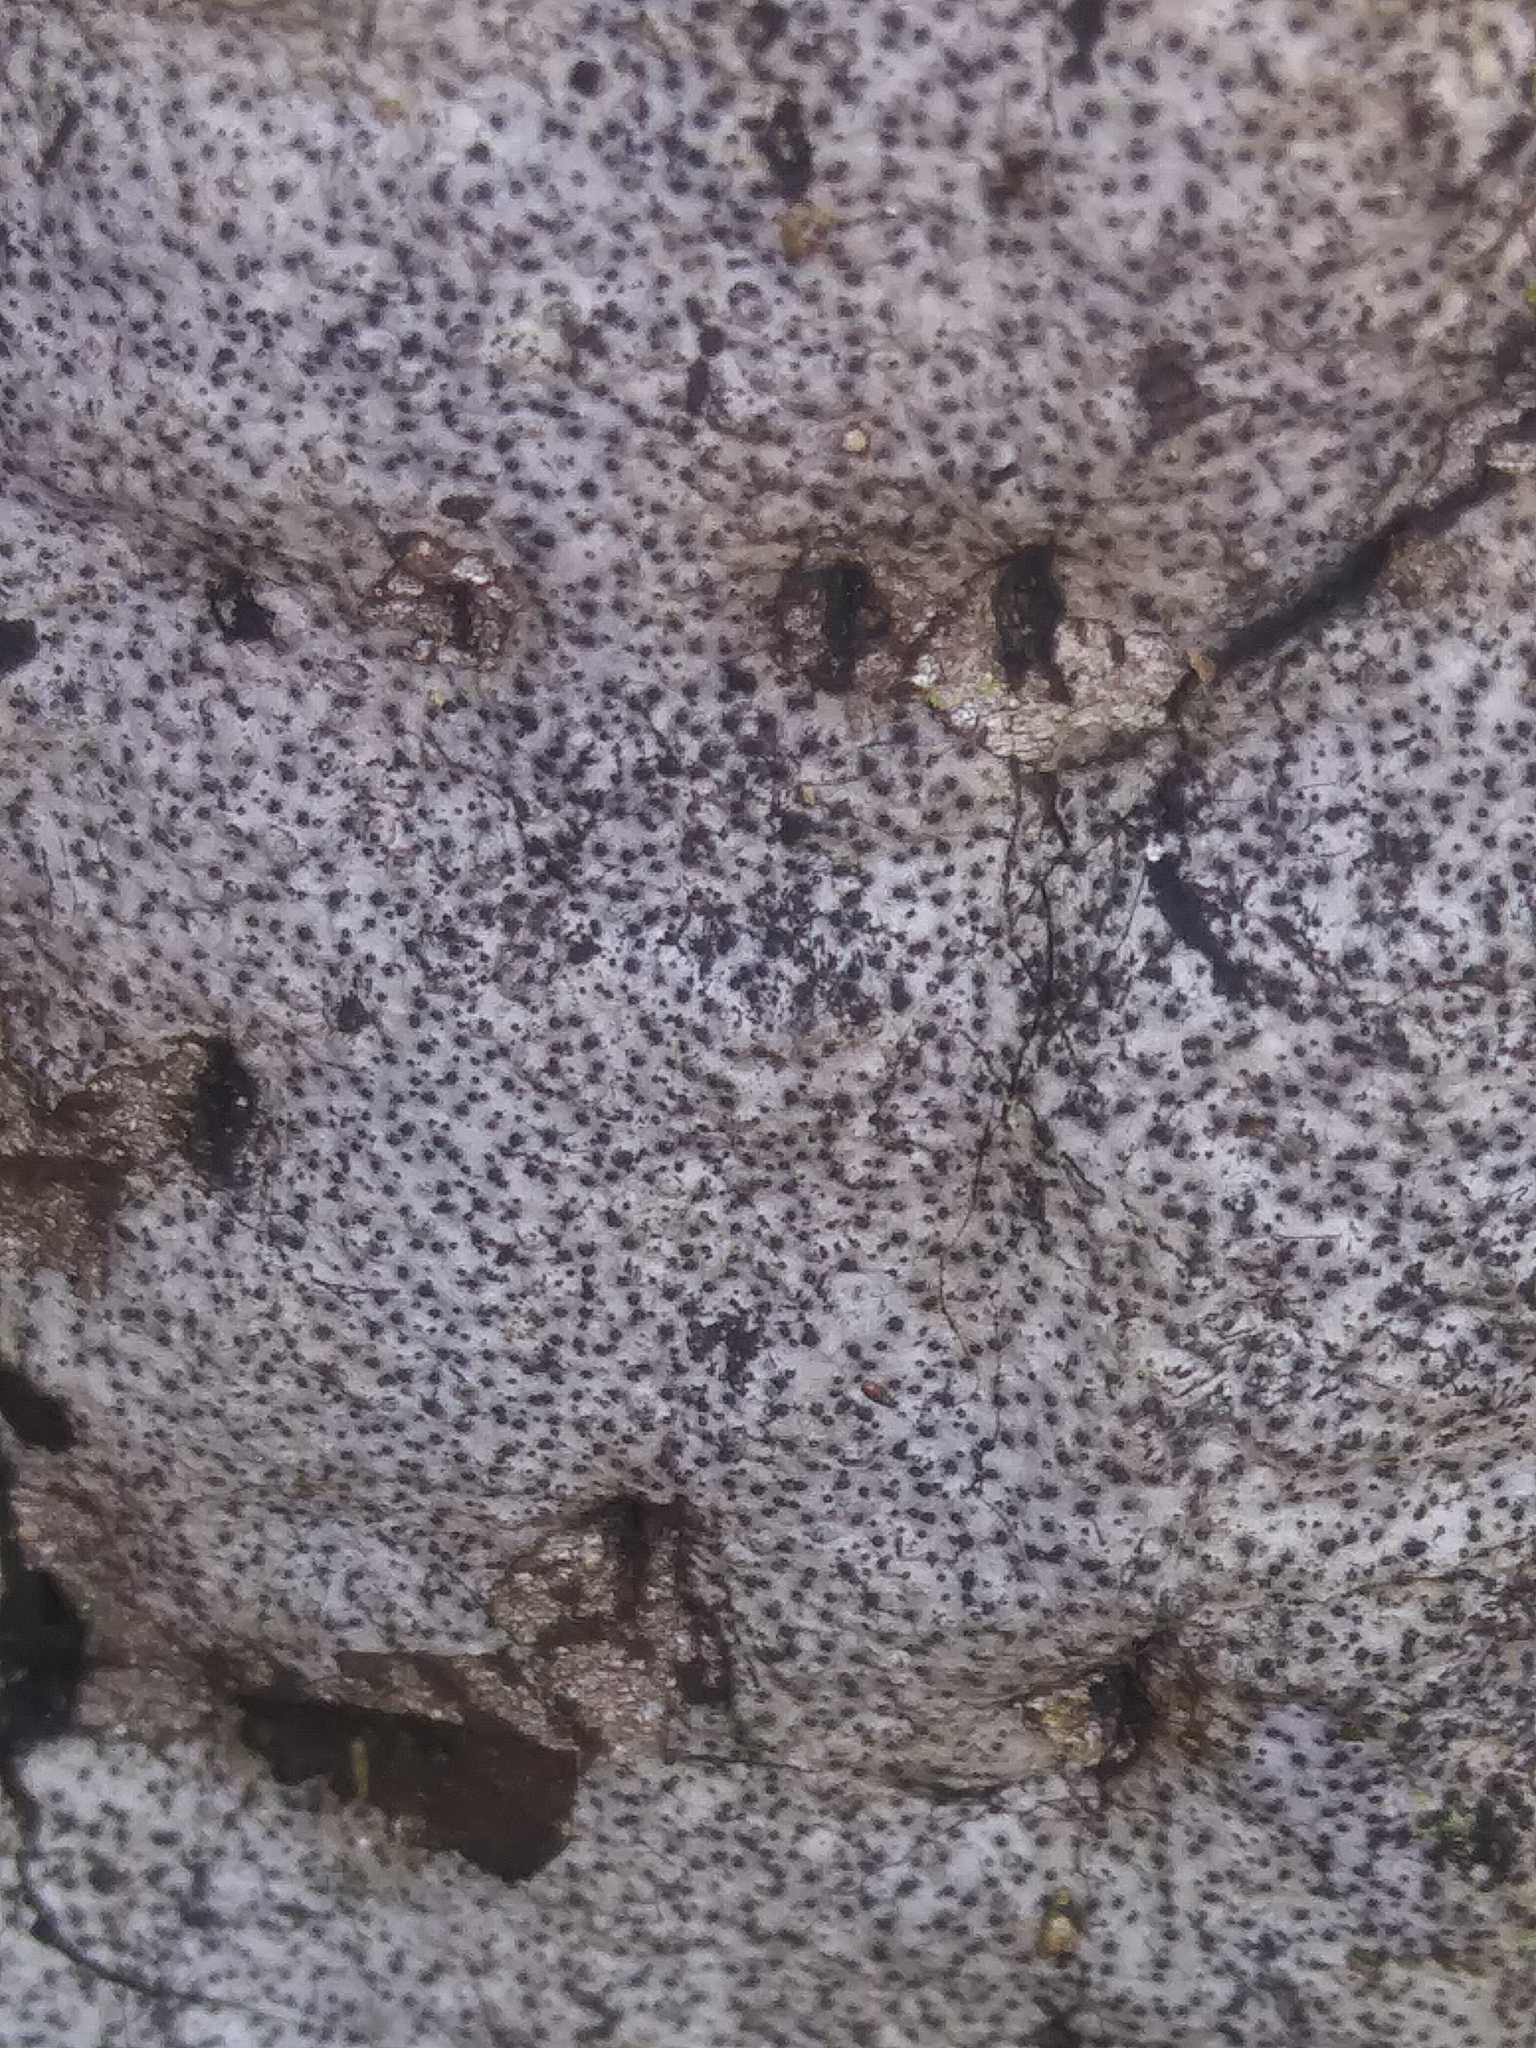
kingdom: Fungi
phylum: Ascomycota
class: Sordariomycetes
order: Xylariales
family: Graphostromataceae
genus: Biscogniauxia
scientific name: Biscogniauxia atropunctata
